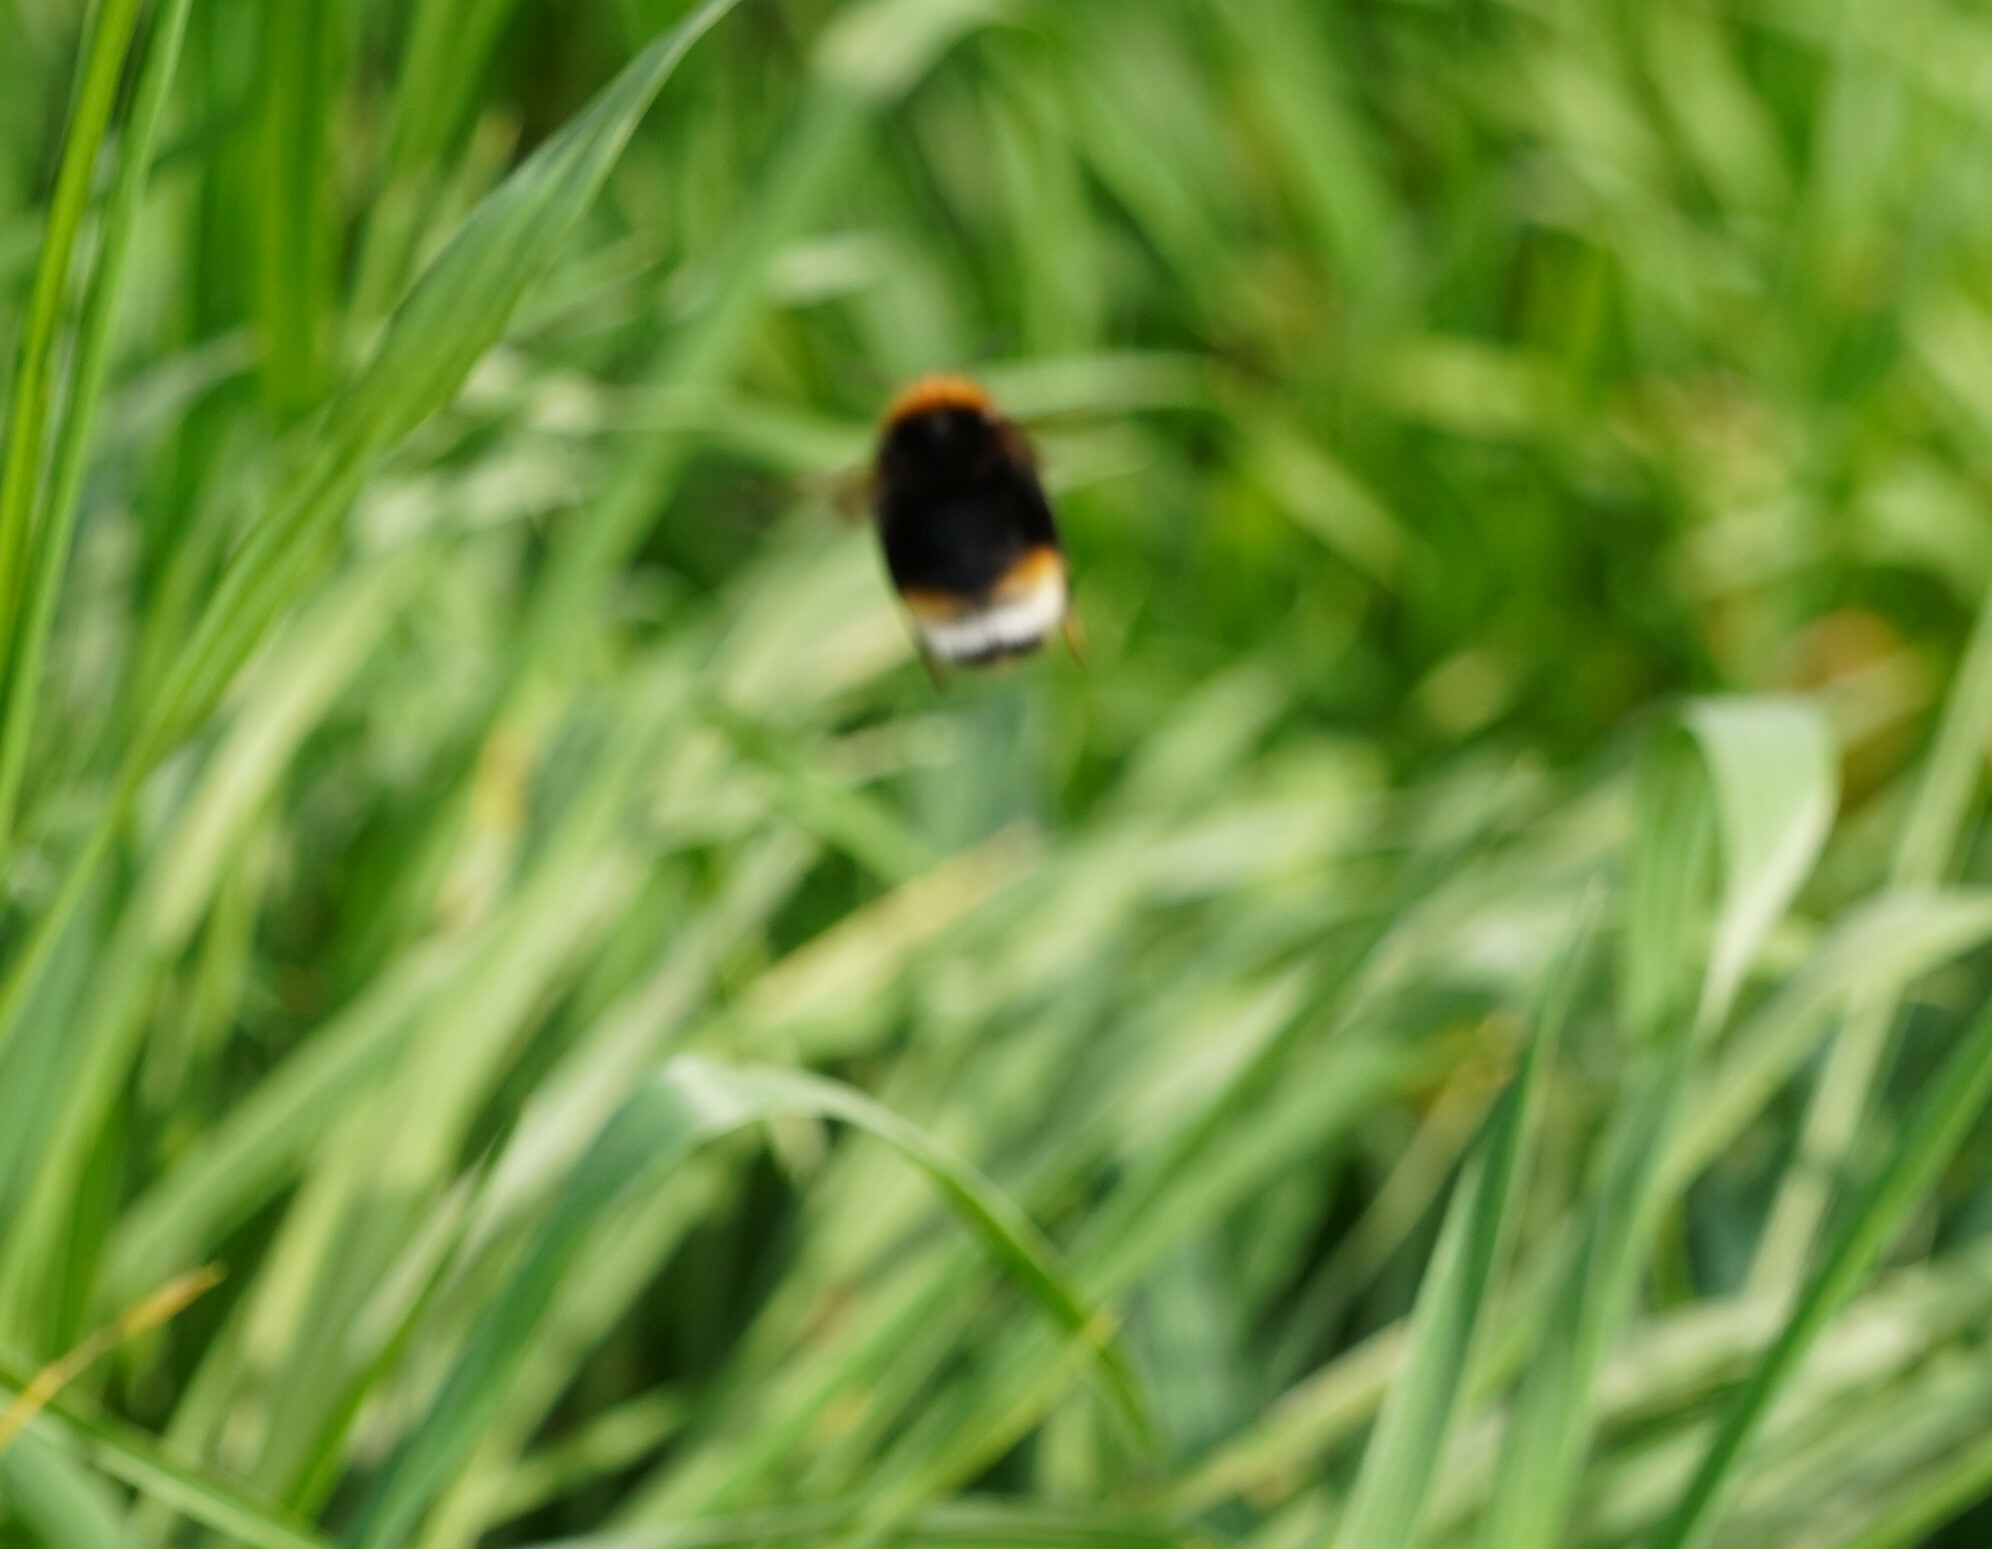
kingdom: Animalia
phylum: Arthropoda
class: Insecta
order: Hymenoptera
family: Apidae
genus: Bombus
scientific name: Bombus vestalis
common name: Vestal cuckoo bee
